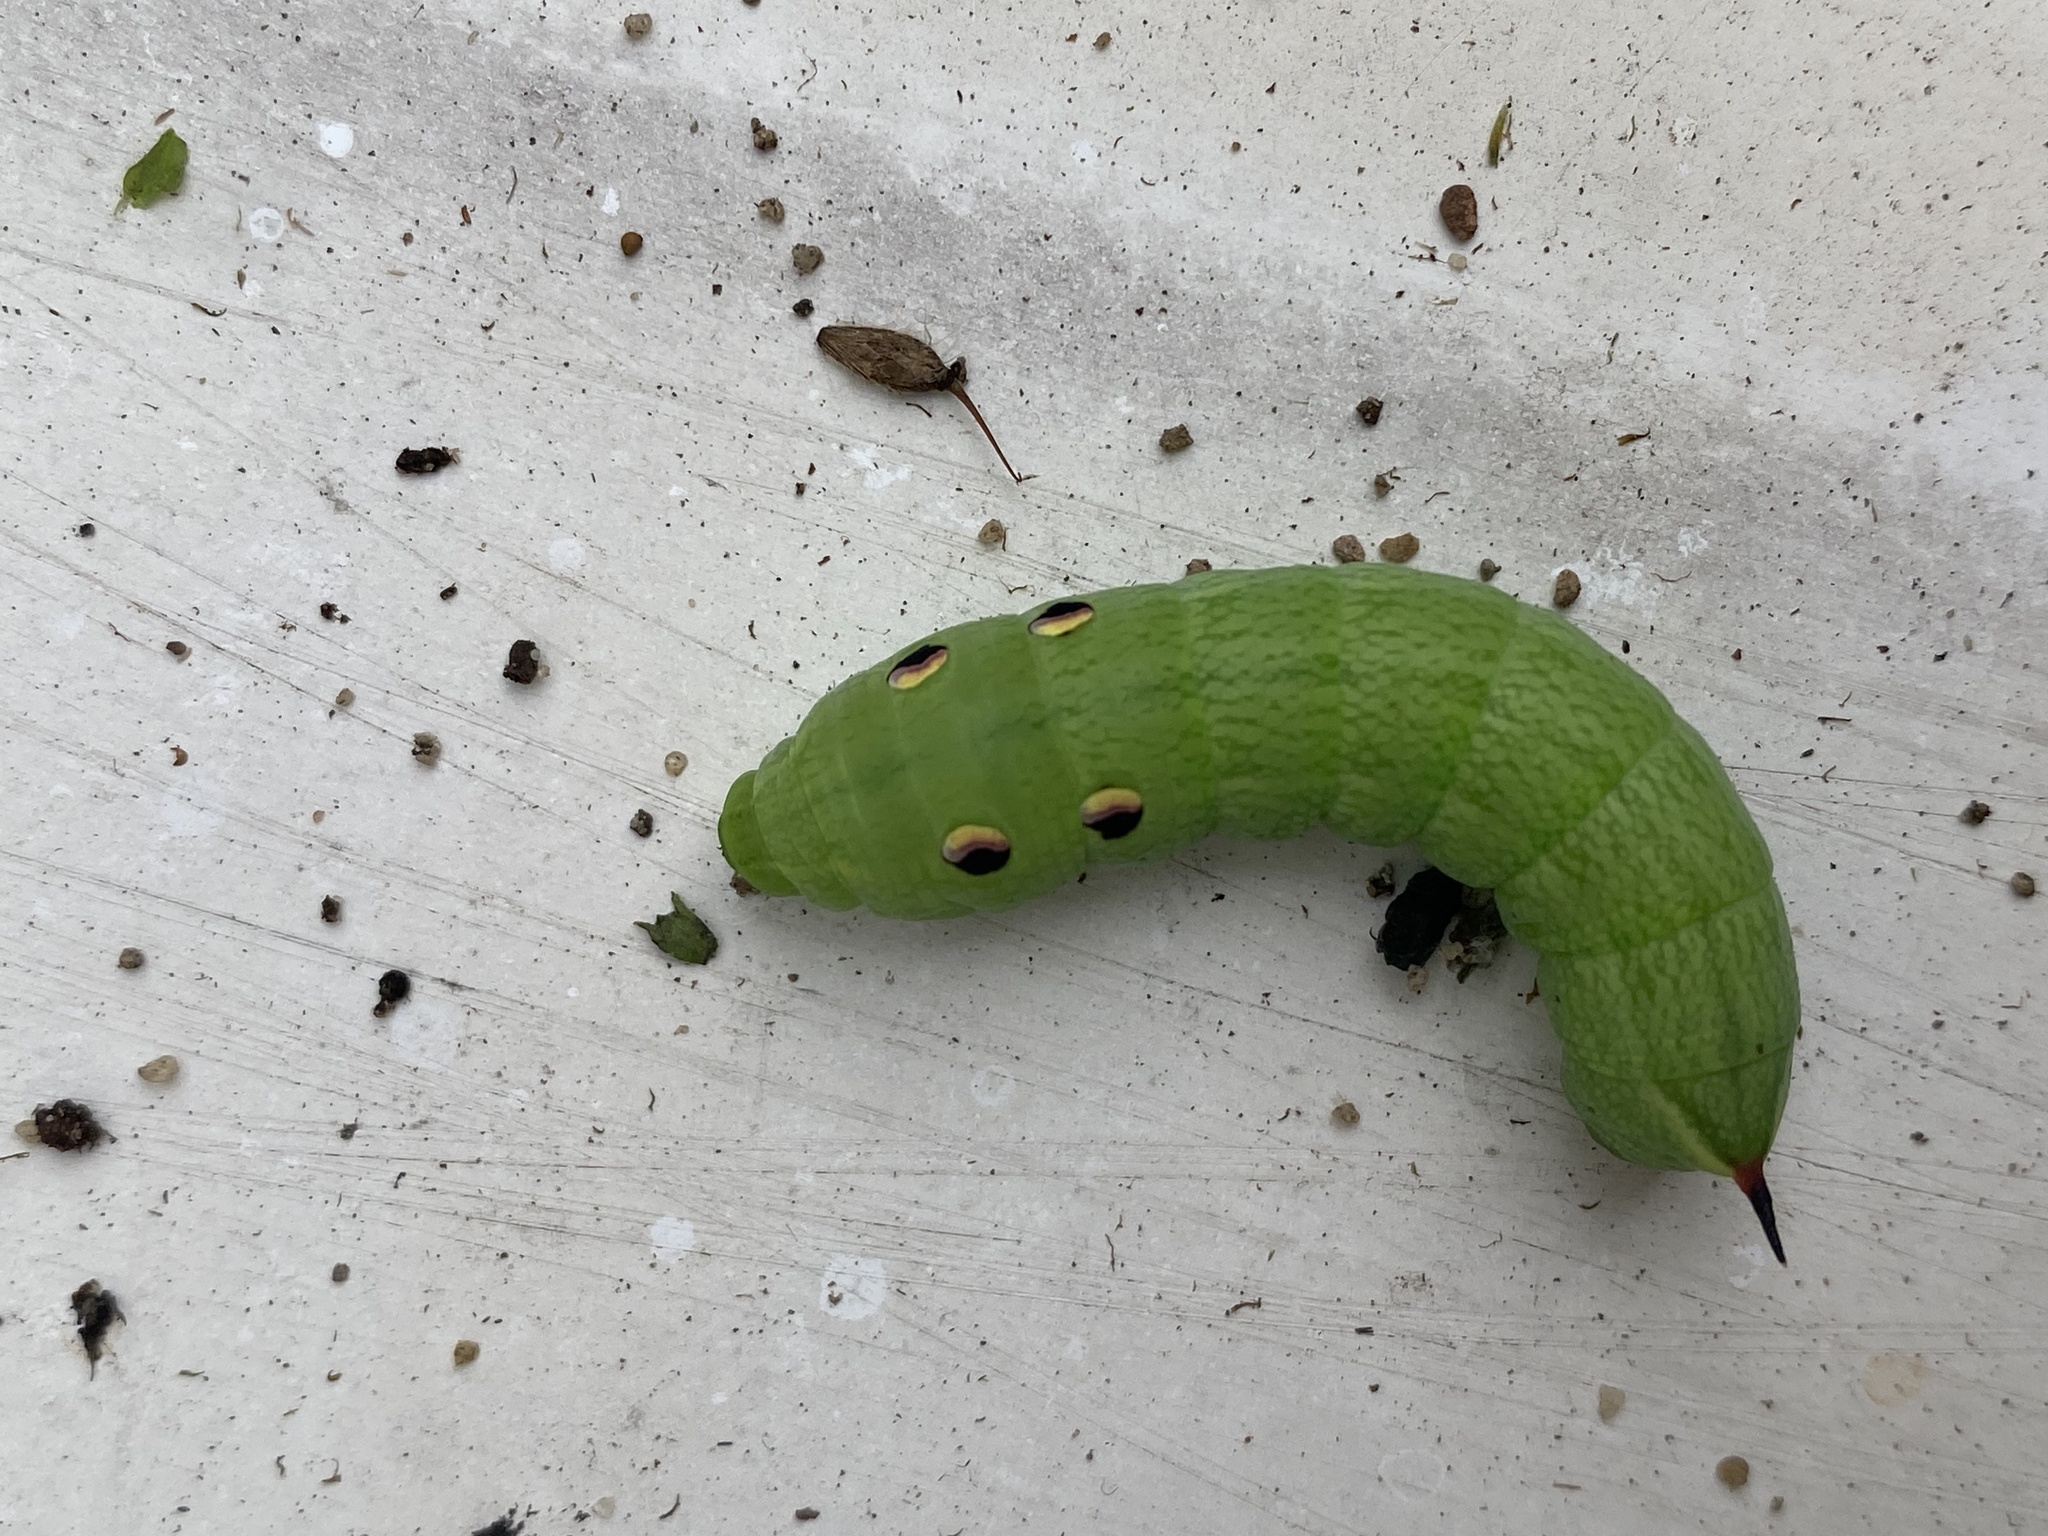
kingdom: Animalia
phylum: Arthropoda
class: Insecta
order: Lepidoptera
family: Sphingidae
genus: Deilephila
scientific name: Deilephila elpenor
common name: Elephant hawk-moth
